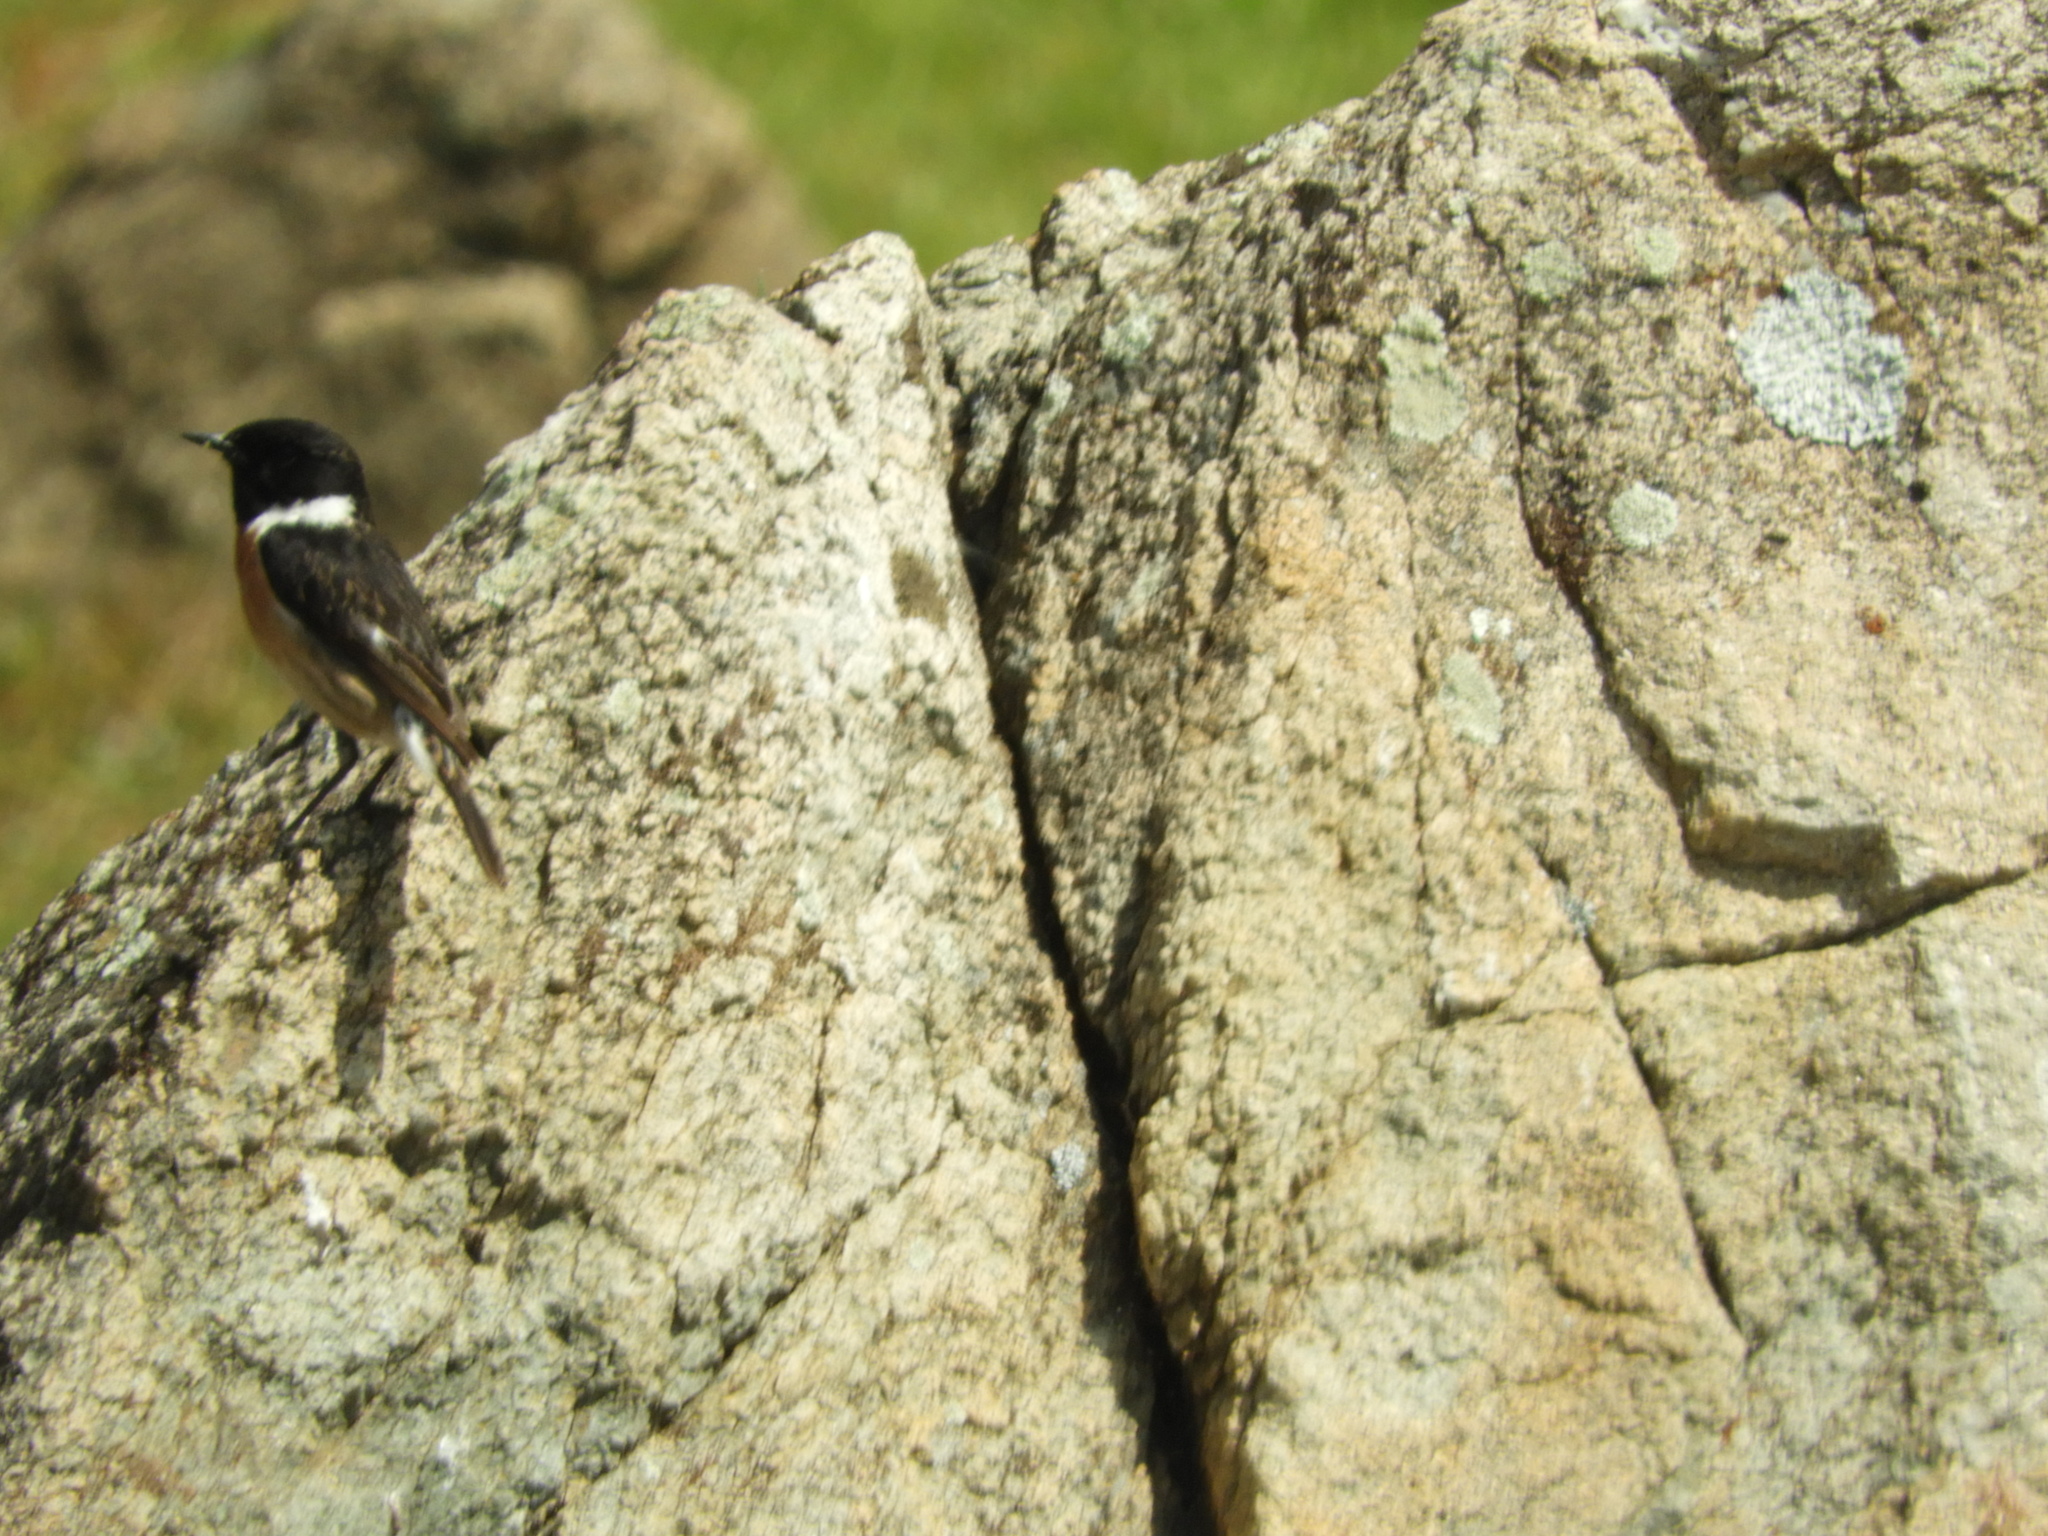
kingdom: Animalia
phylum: Chordata
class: Aves
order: Passeriformes
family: Muscicapidae
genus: Saxicola
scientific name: Saxicola rubicola
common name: European stonechat
